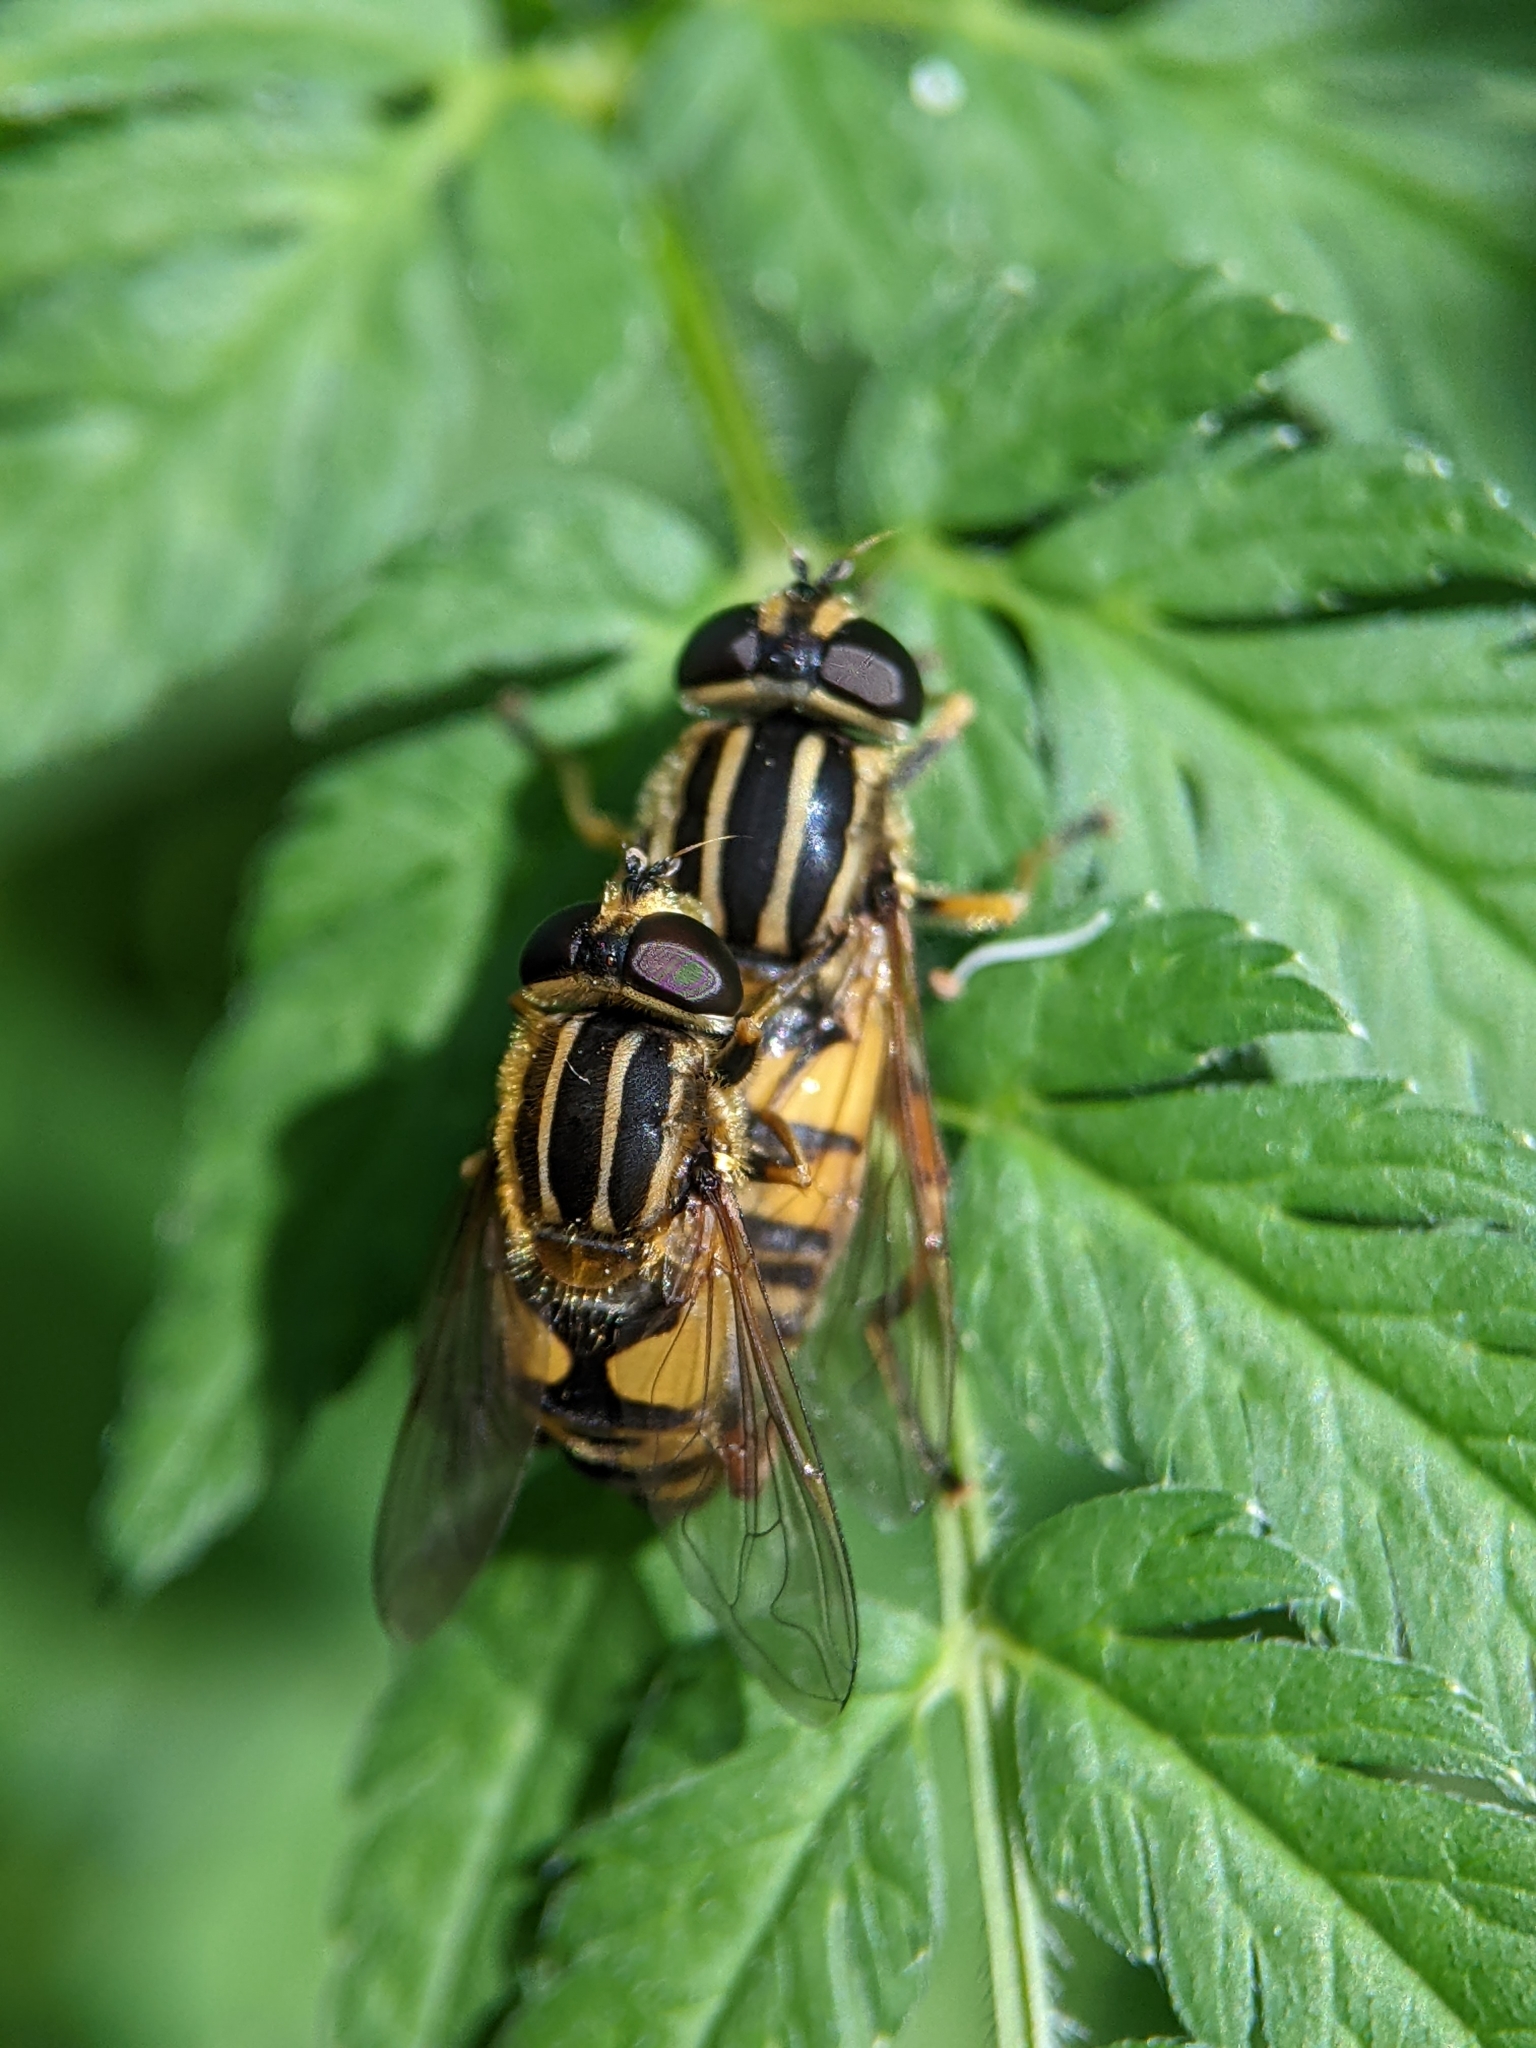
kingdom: Animalia
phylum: Arthropoda
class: Insecta
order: Diptera
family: Syrphidae
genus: Helophilus
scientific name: Helophilus pendulus
